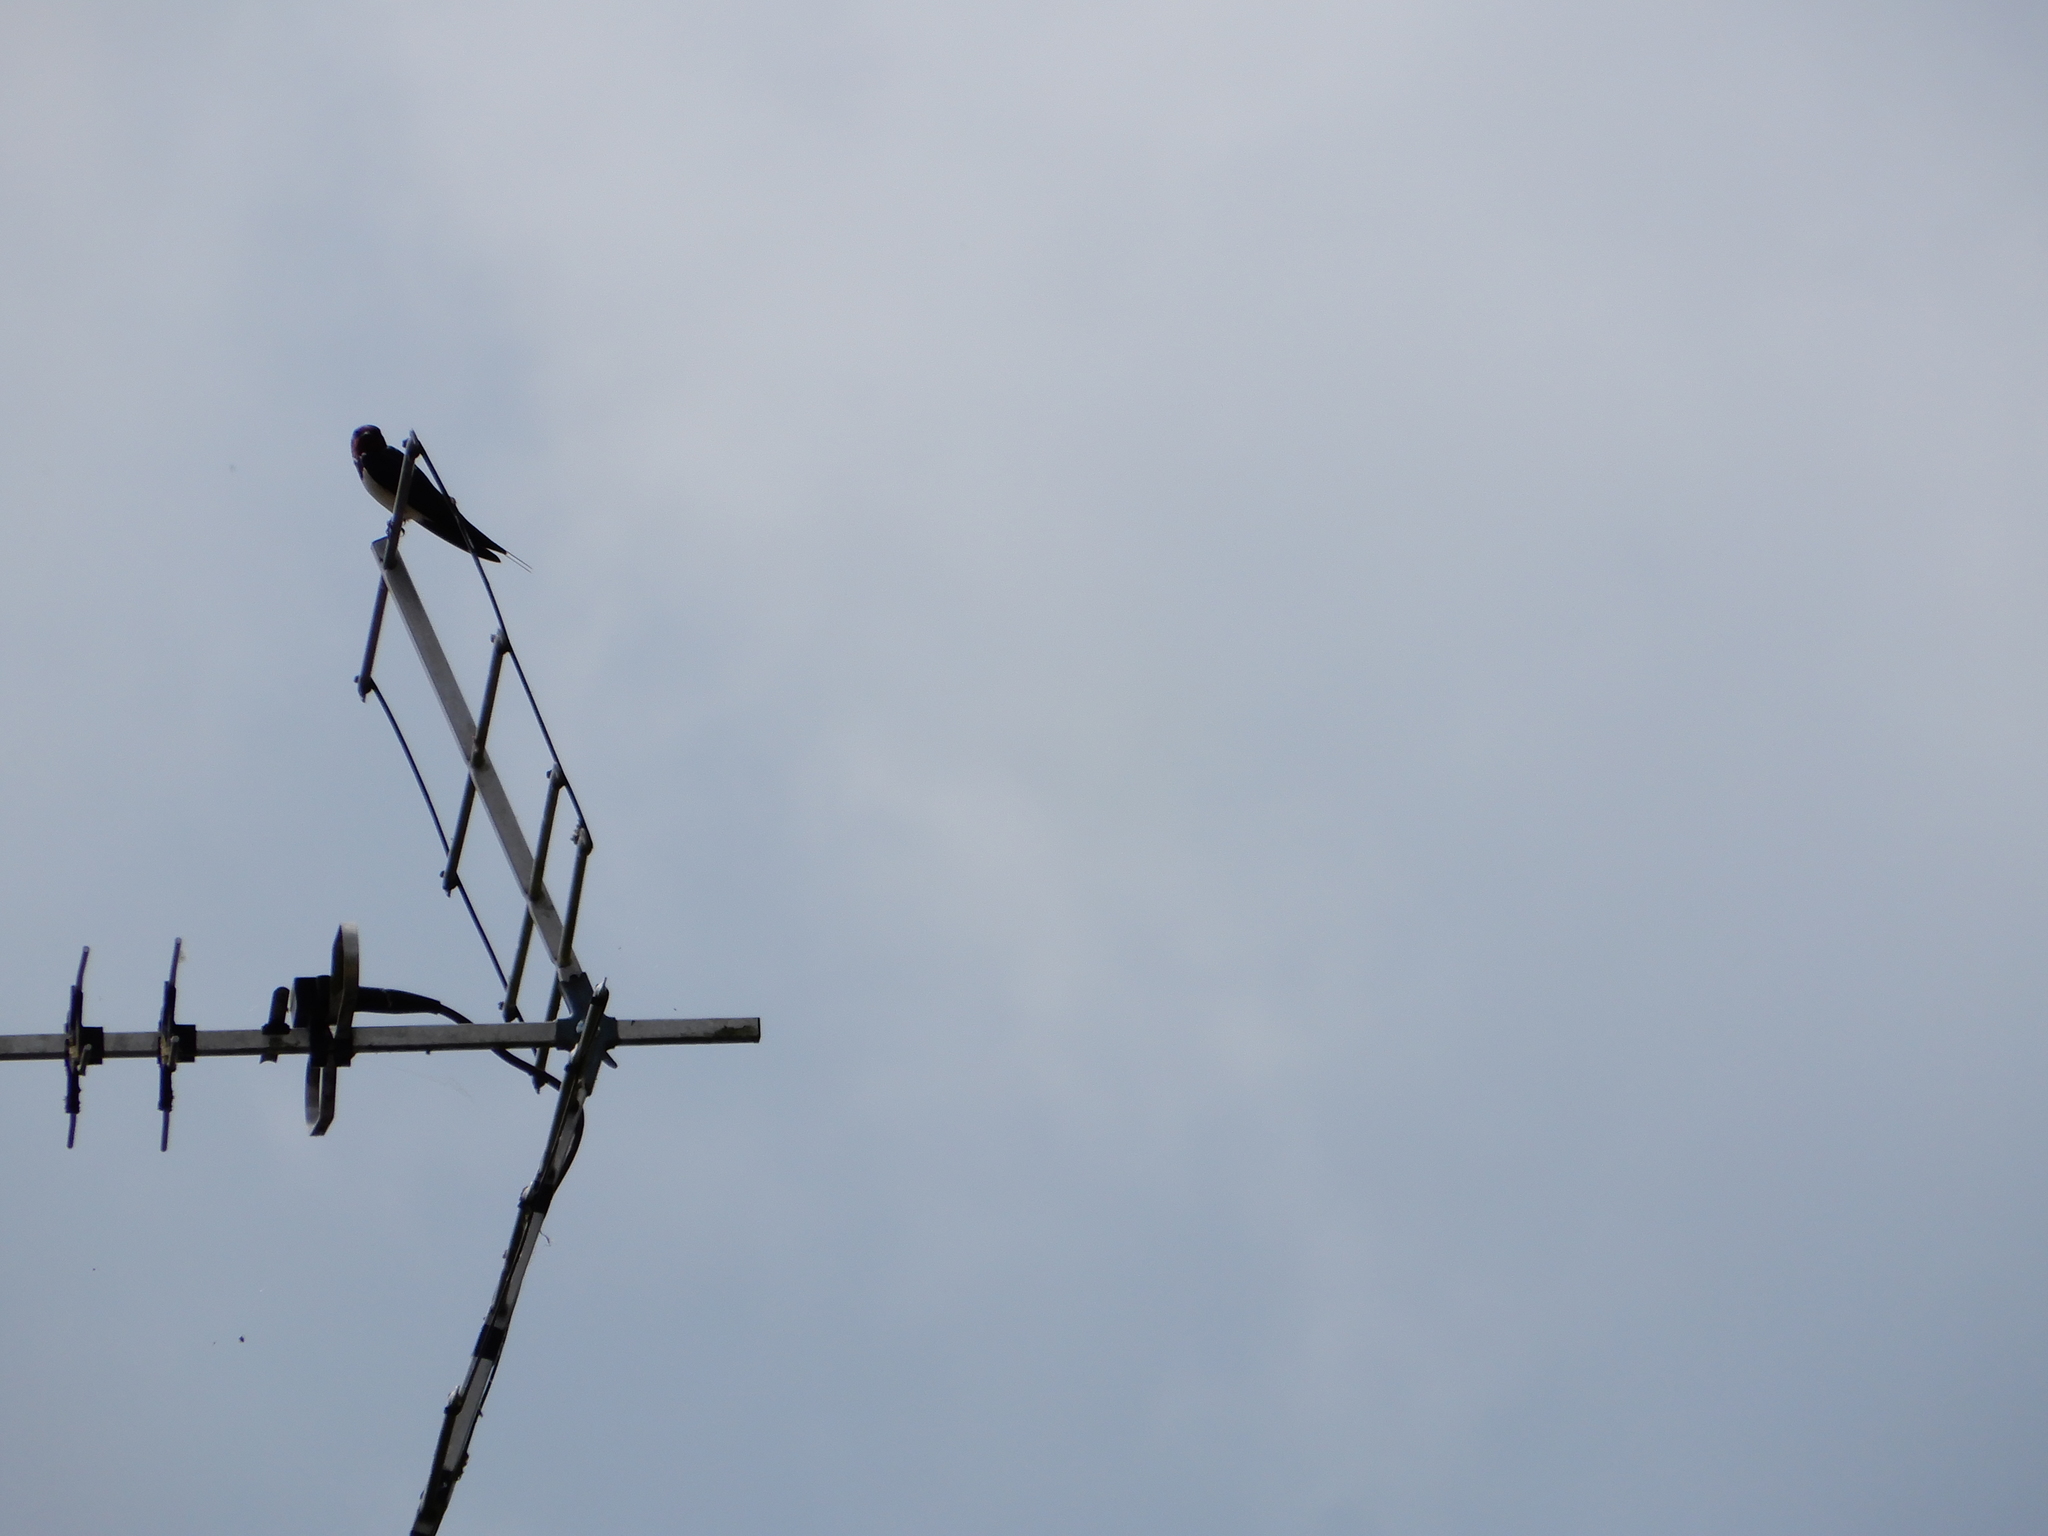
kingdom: Animalia
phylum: Chordata
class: Aves
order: Passeriformes
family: Hirundinidae
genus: Hirundo
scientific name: Hirundo rustica
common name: Barn swallow
